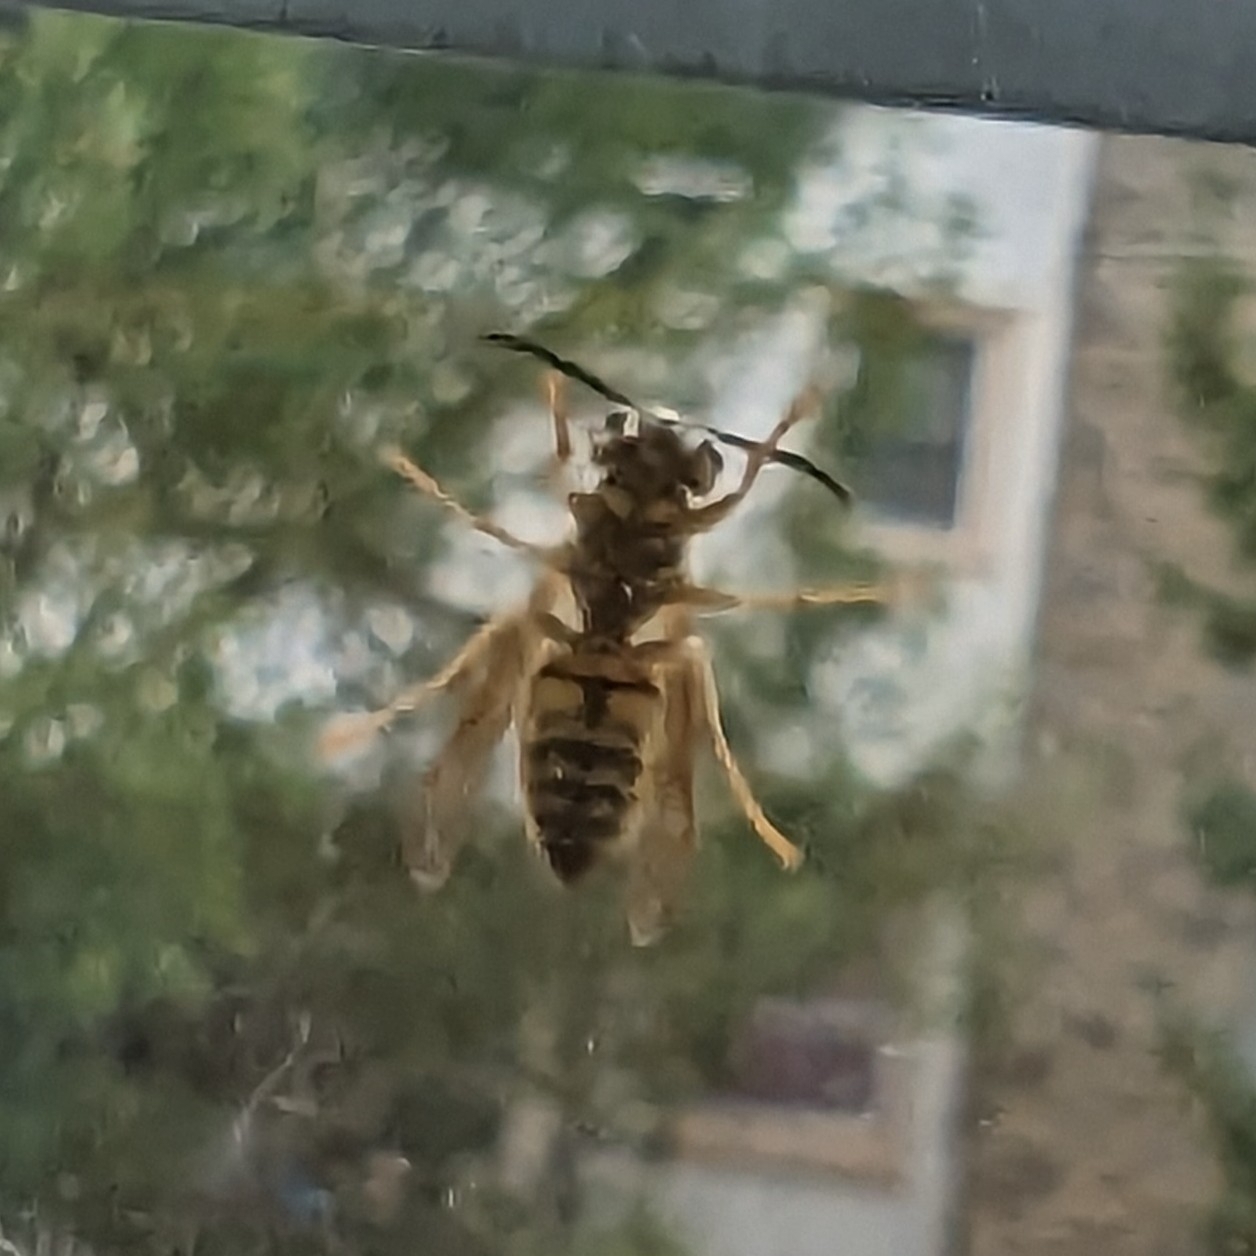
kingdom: Animalia
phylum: Arthropoda
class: Insecta
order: Hymenoptera
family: Vespidae
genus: Vespula
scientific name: Vespula squamosa
